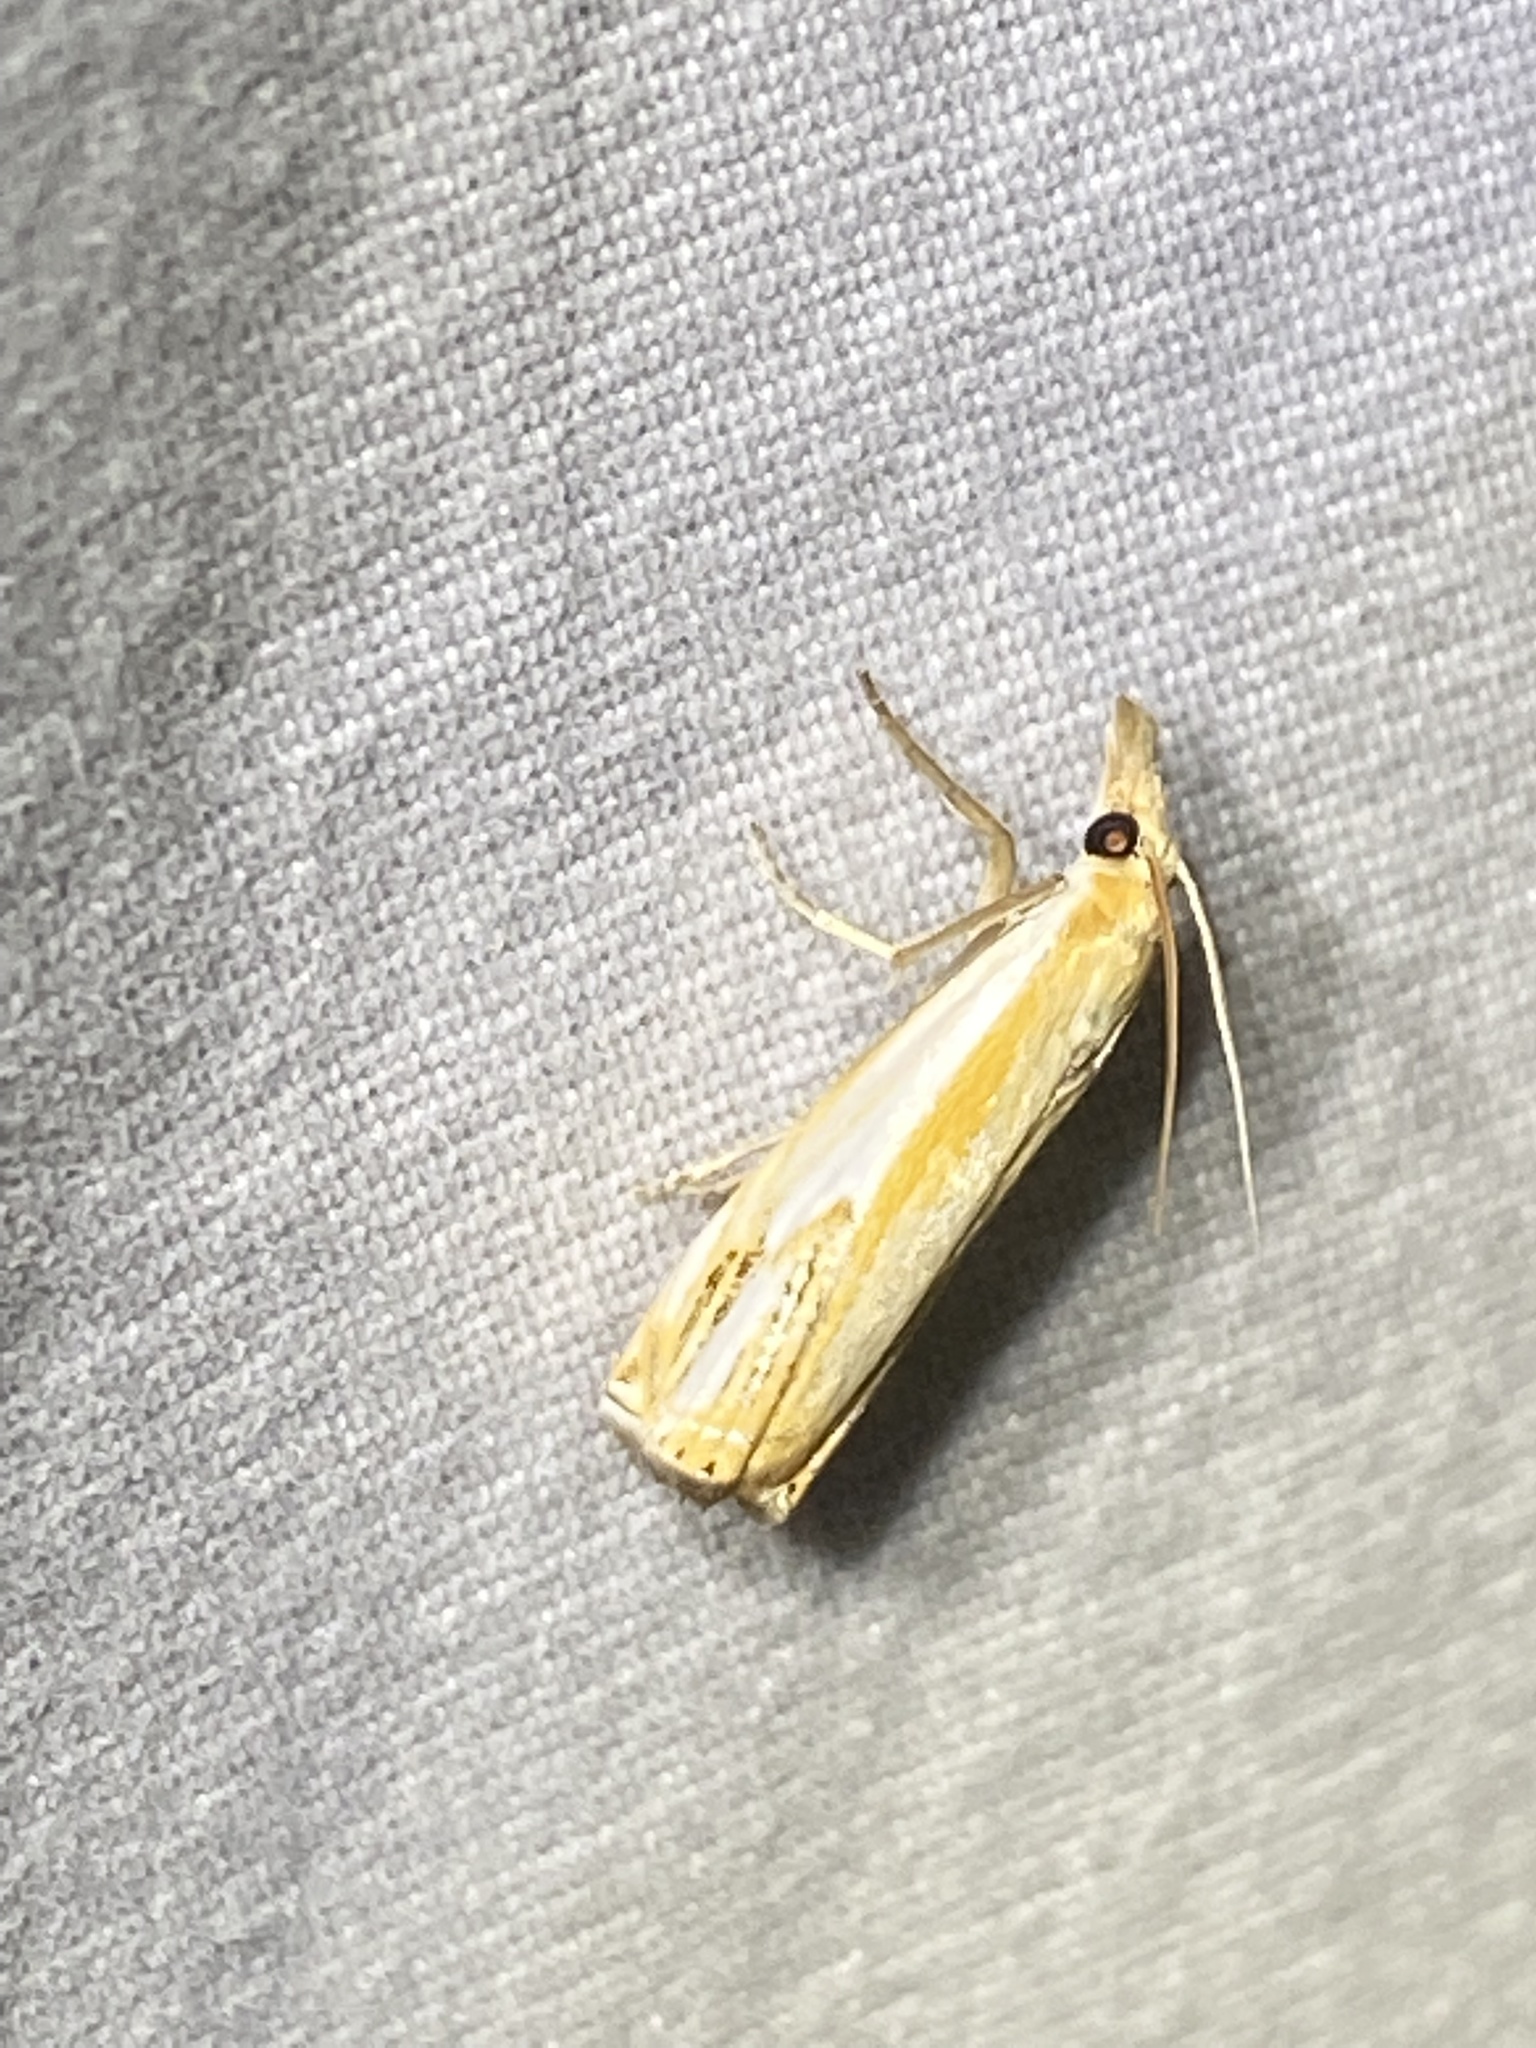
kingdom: Animalia
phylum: Arthropoda
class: Insecta
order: Lepidoptera
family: Crambidae
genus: Crambus
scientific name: Crambus agitatellus
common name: Double-banded grass-veneer
